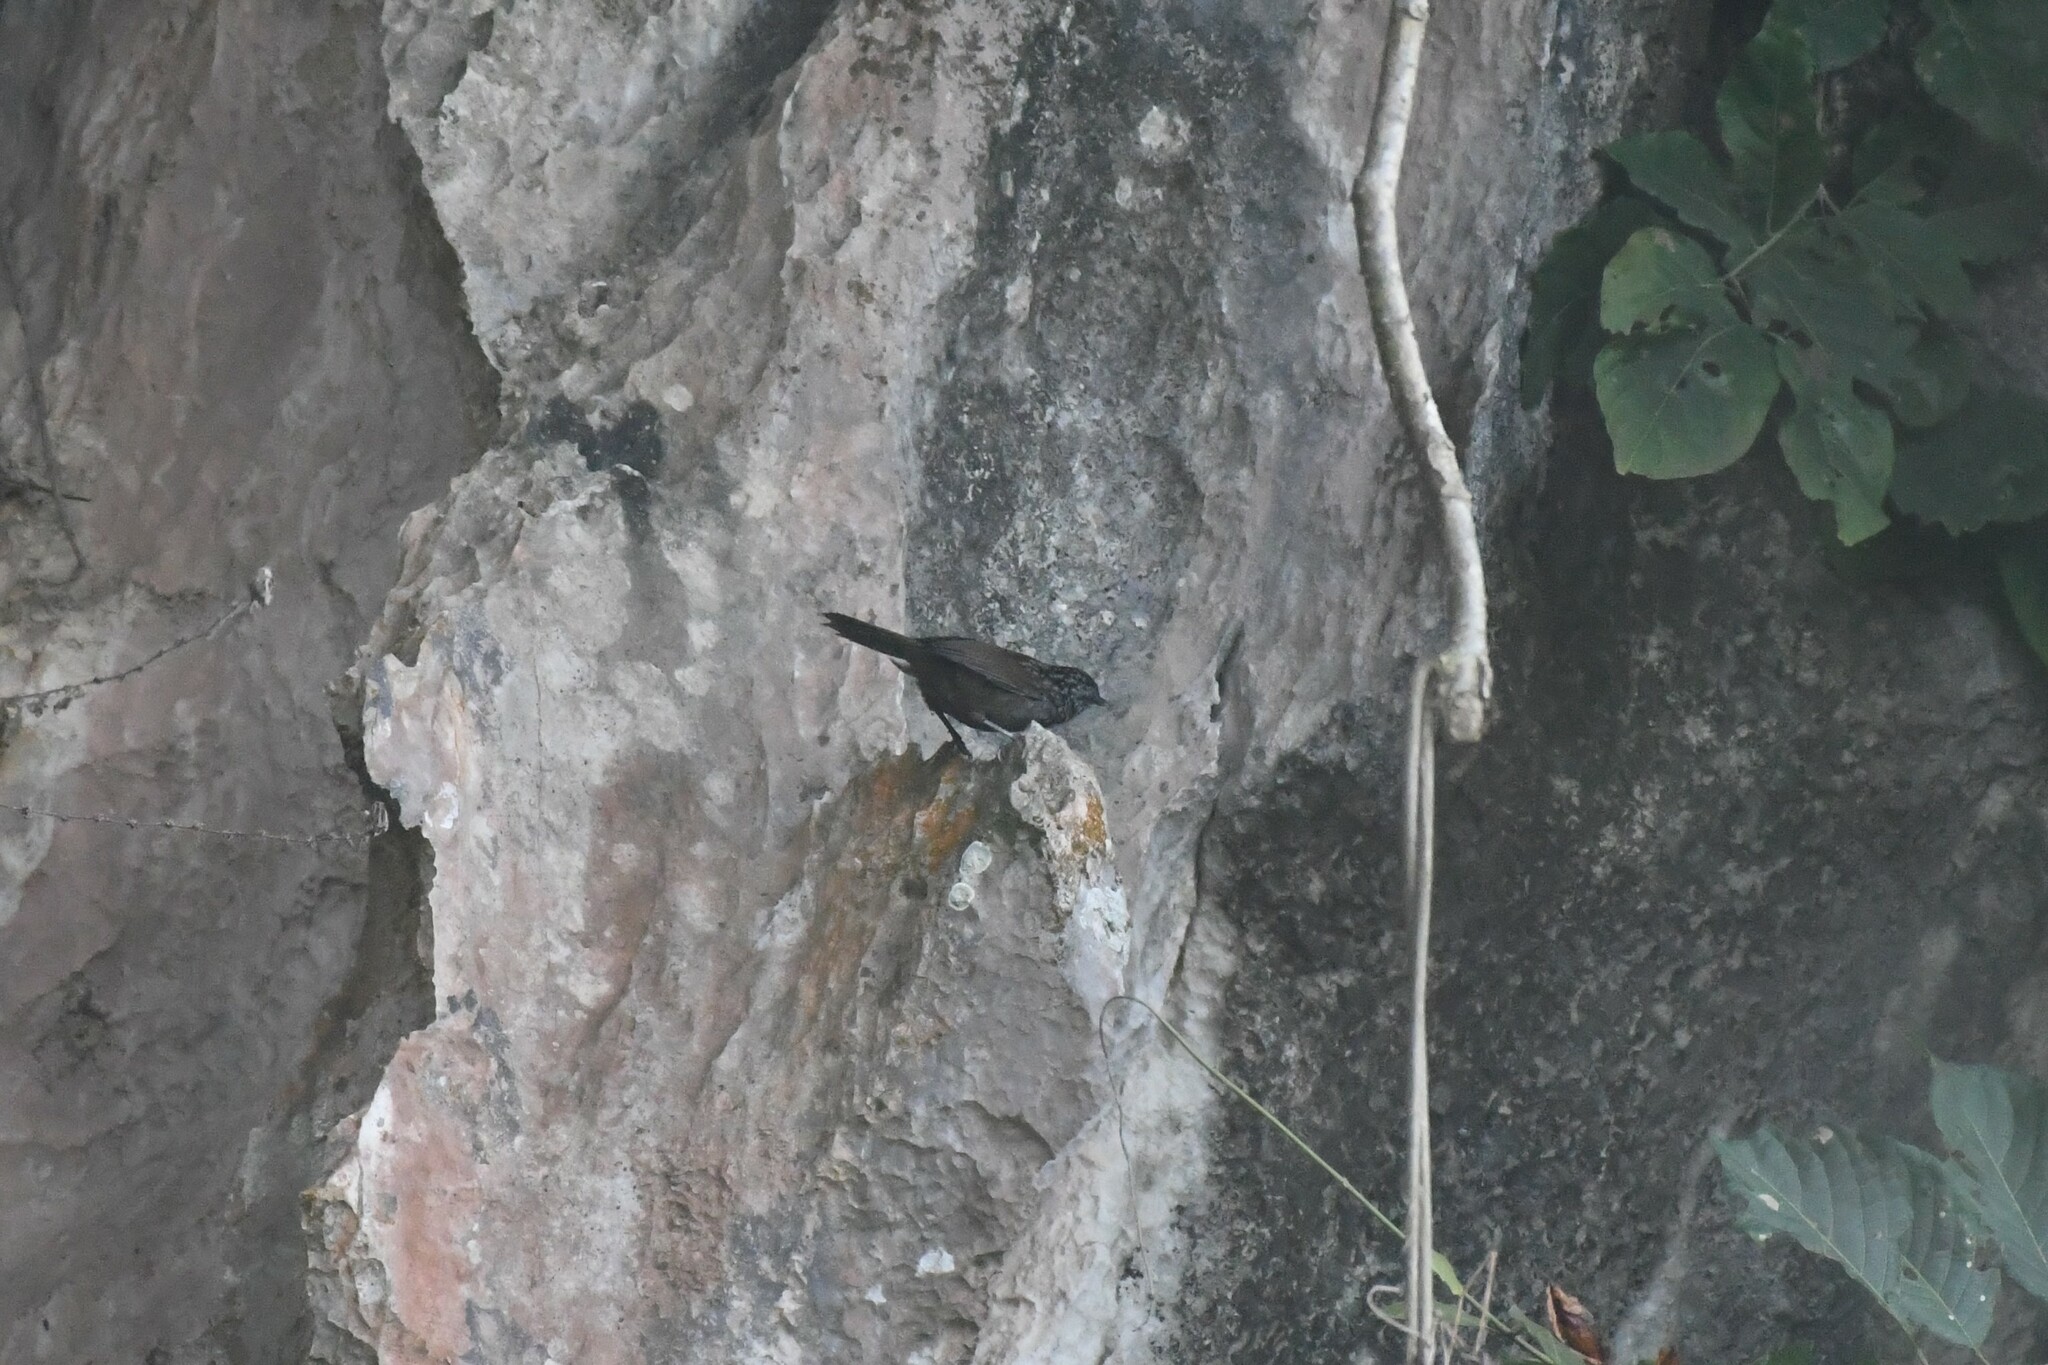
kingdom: Animalia
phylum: Chordata
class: Aves
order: Passeriformes
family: Pellorneidae
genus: Napothera
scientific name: Napothera crispifrons
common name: Limestone wren-babbler
